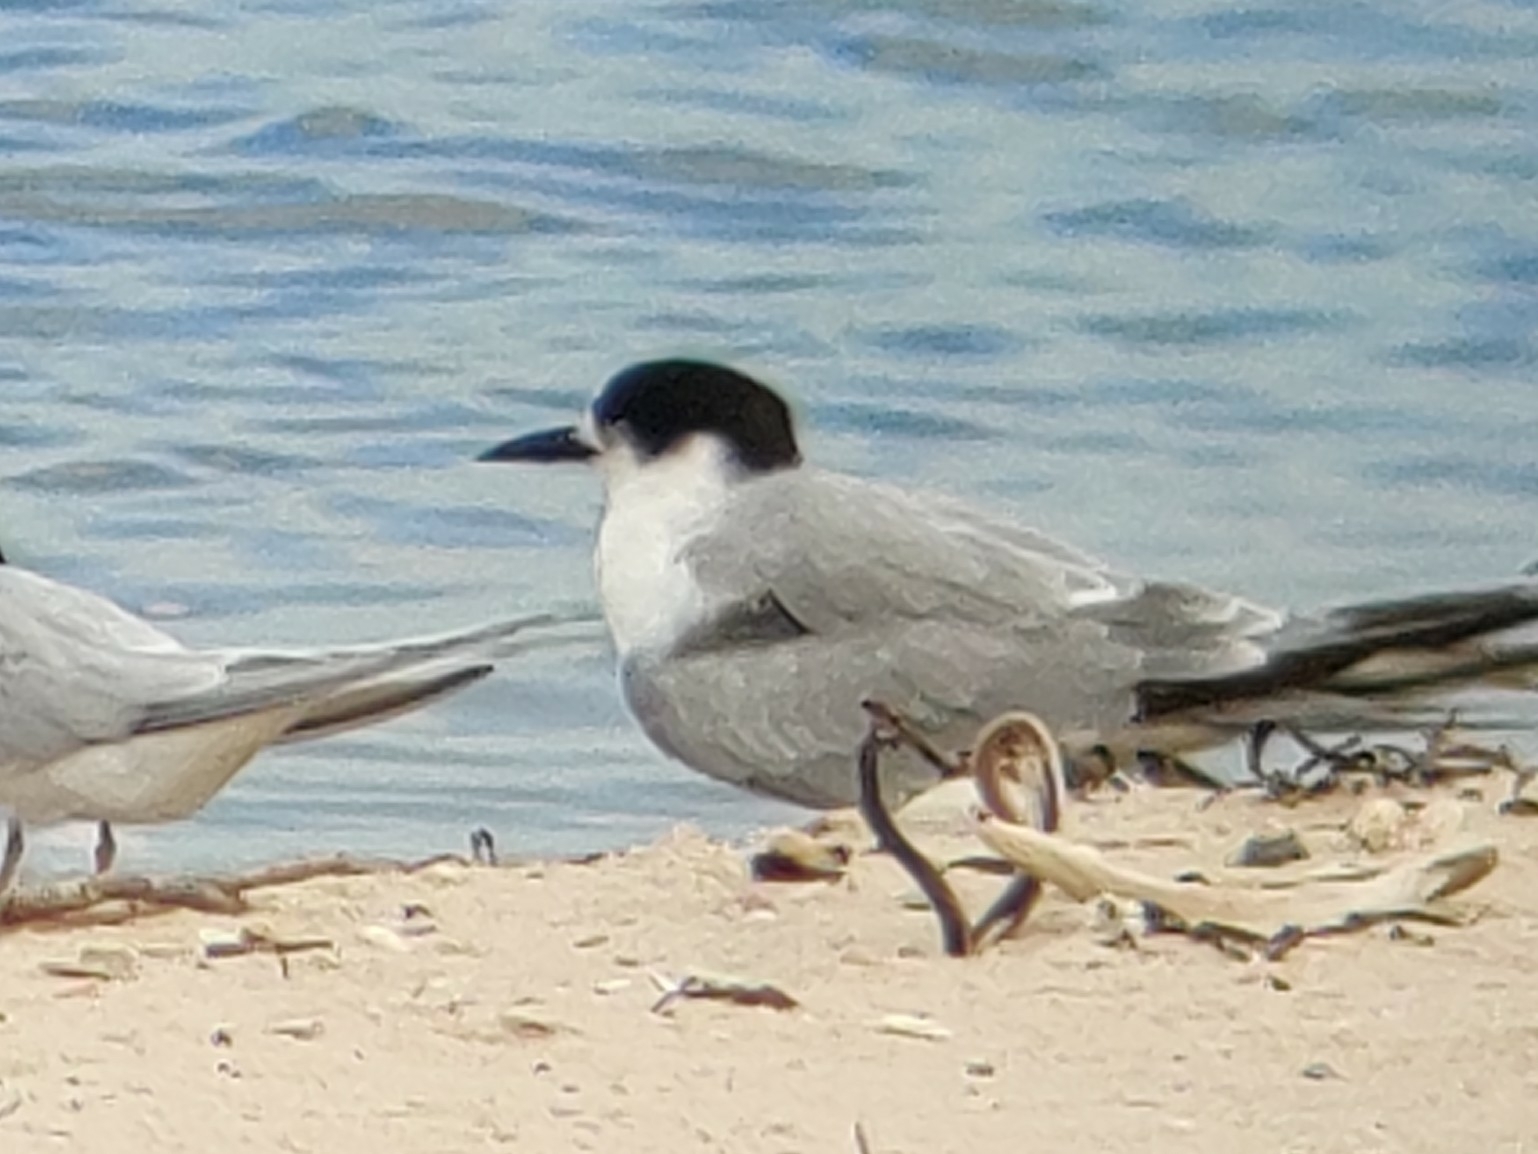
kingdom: Animalia
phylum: Chordata
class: Aves
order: Charadriiformes
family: Laridae
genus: Sterna
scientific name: Sterna hirundo
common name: Common tern
